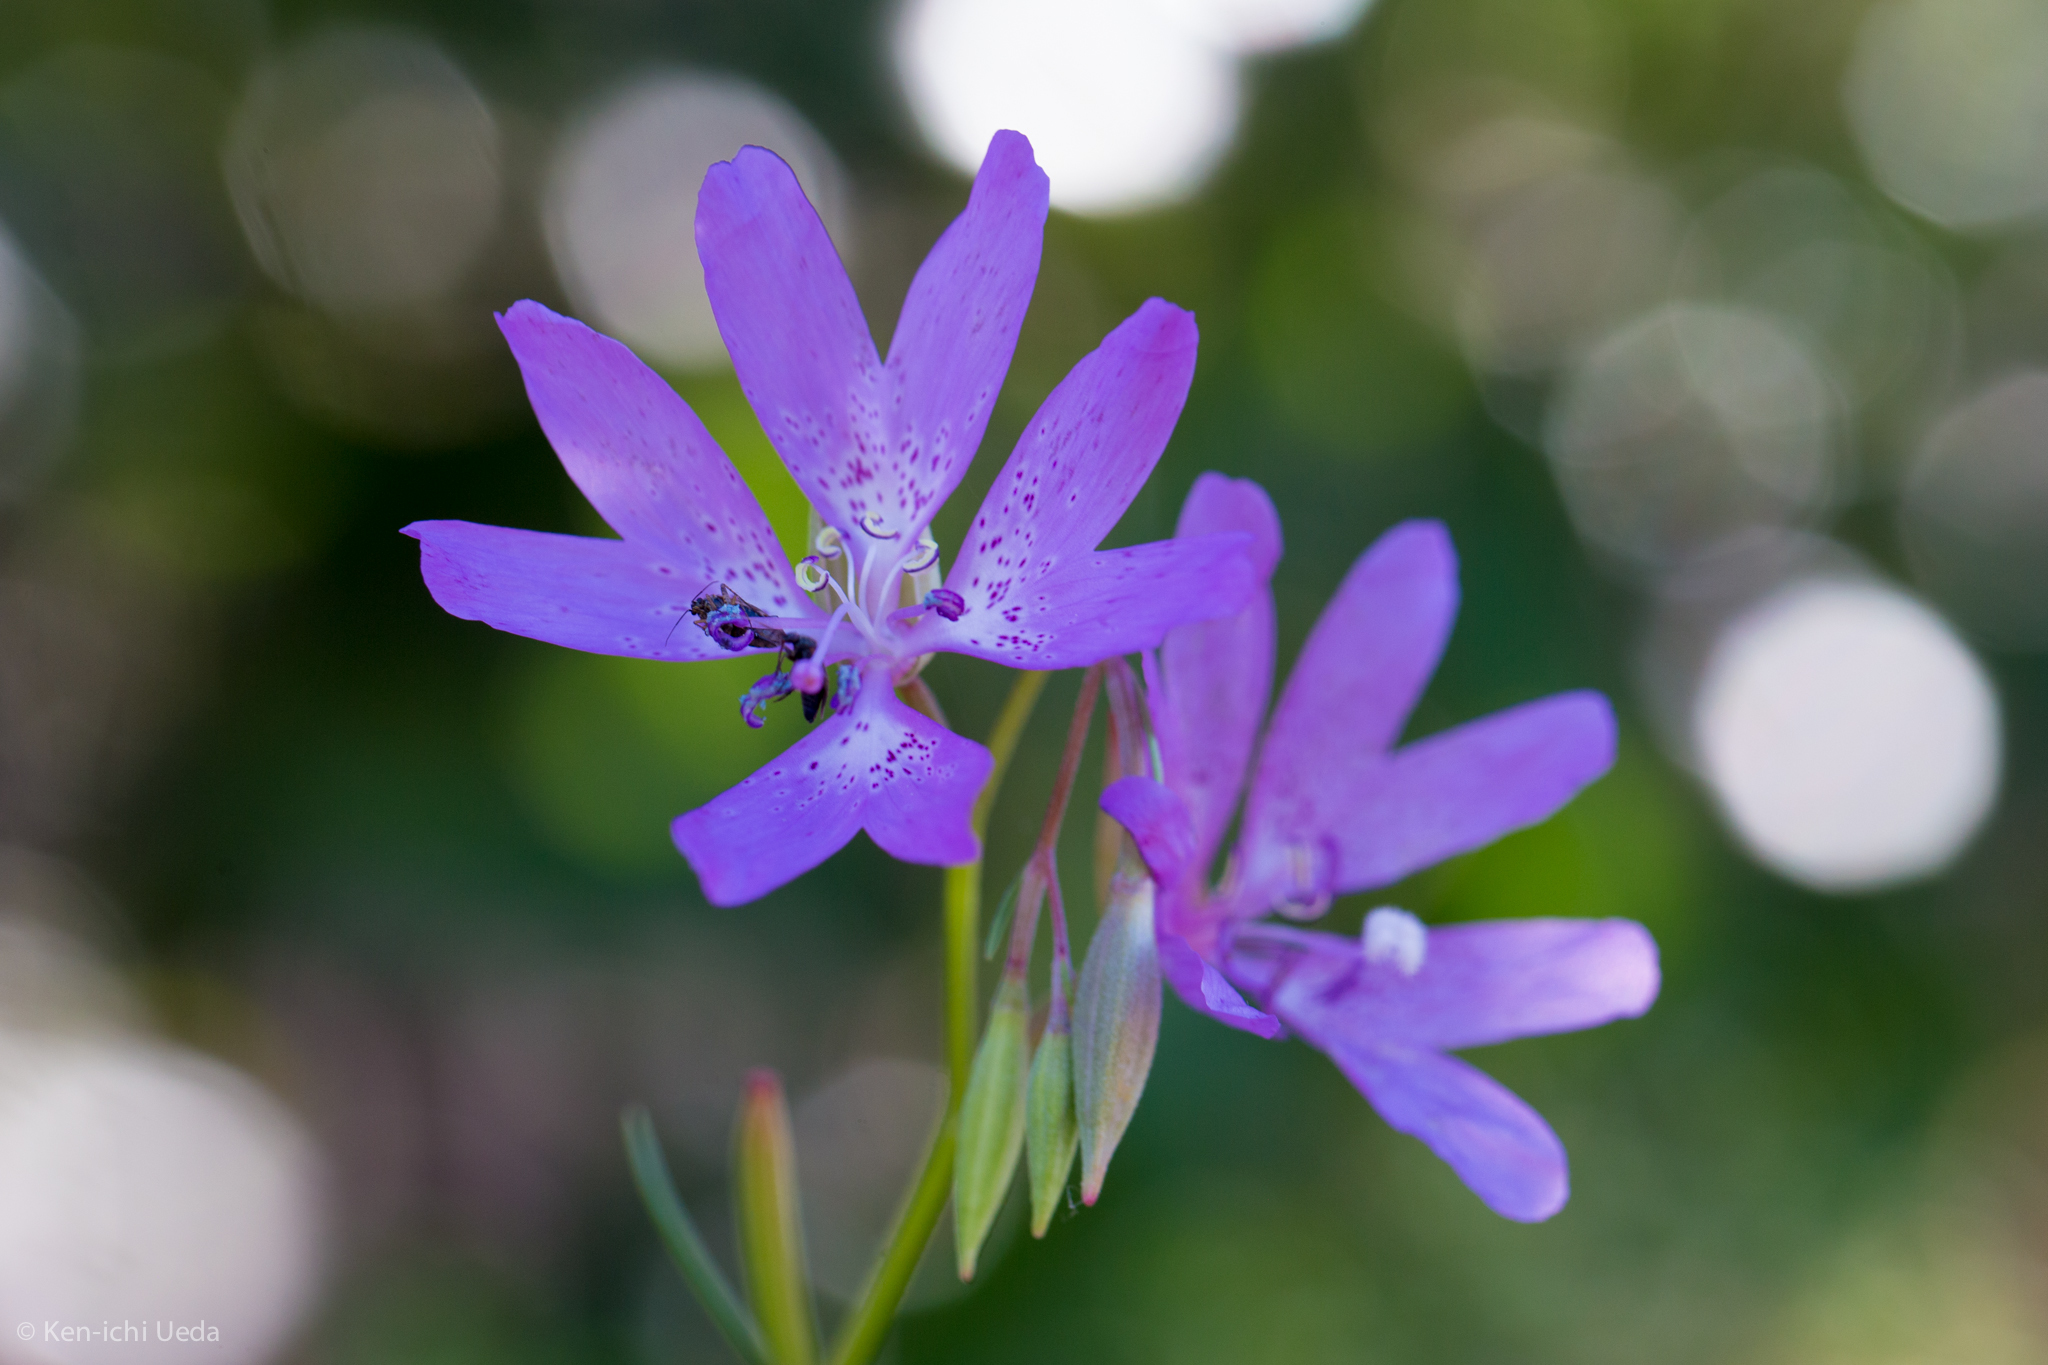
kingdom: Plantae
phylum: Tracheophyta
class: Magnoliopsida
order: Myrtales
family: Onagraceae
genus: Clarkia
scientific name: Clarkia biloba
